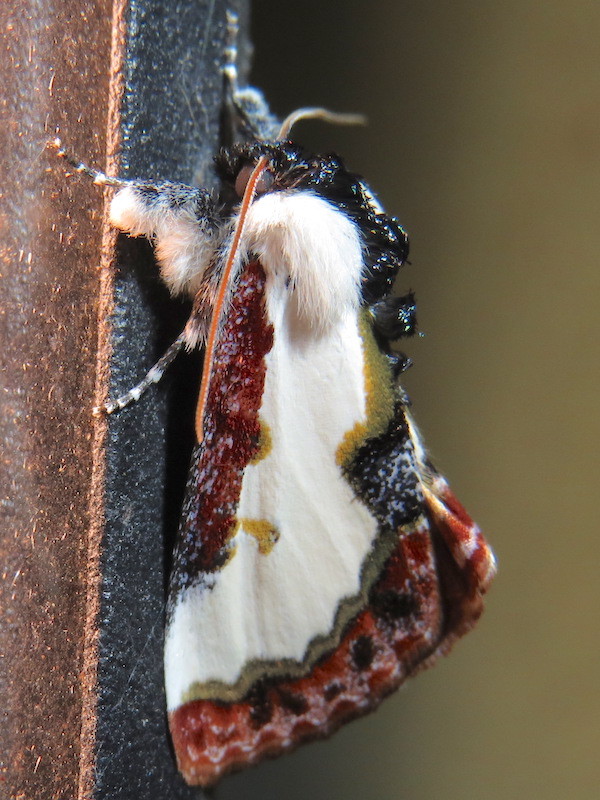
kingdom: Animalia
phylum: Arthropoda
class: Insecta
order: Lepidoptera
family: Noctuidae
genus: Eudryas
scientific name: Eudryas unio
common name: Pearly wood-nymph
